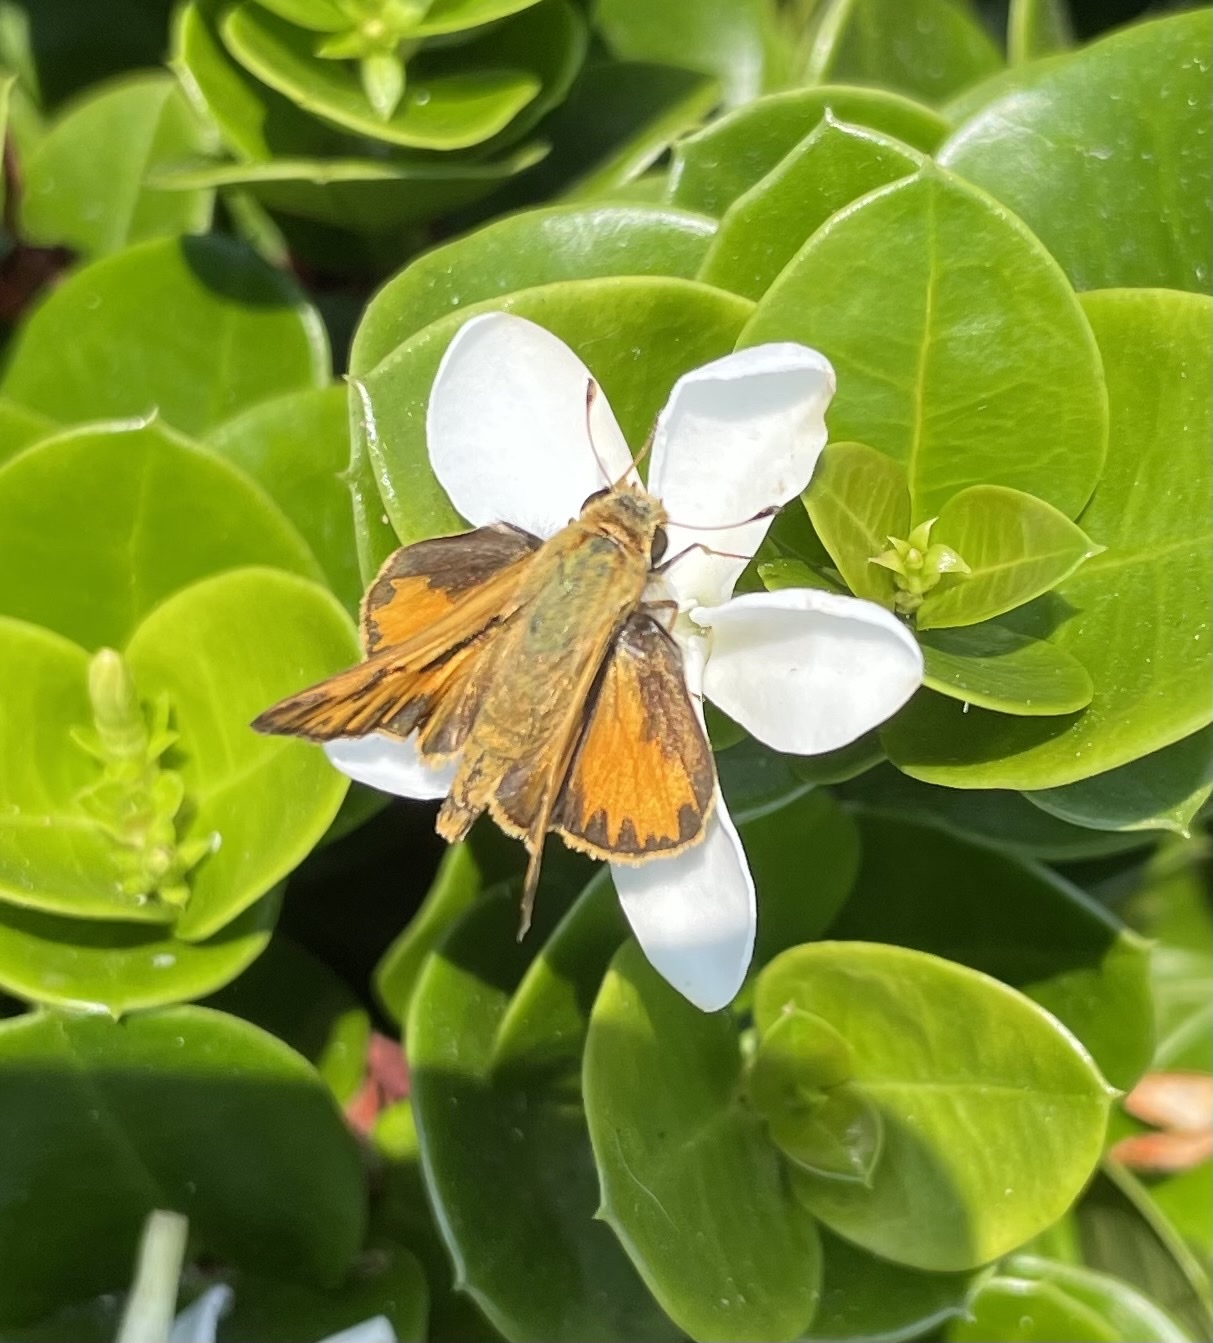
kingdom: Animalia
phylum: Arthropoda
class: Insecta
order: Lepidoptera
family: Hesperiidae
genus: Hylephila
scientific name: Hylephila phyleus
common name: Fiery skipper
